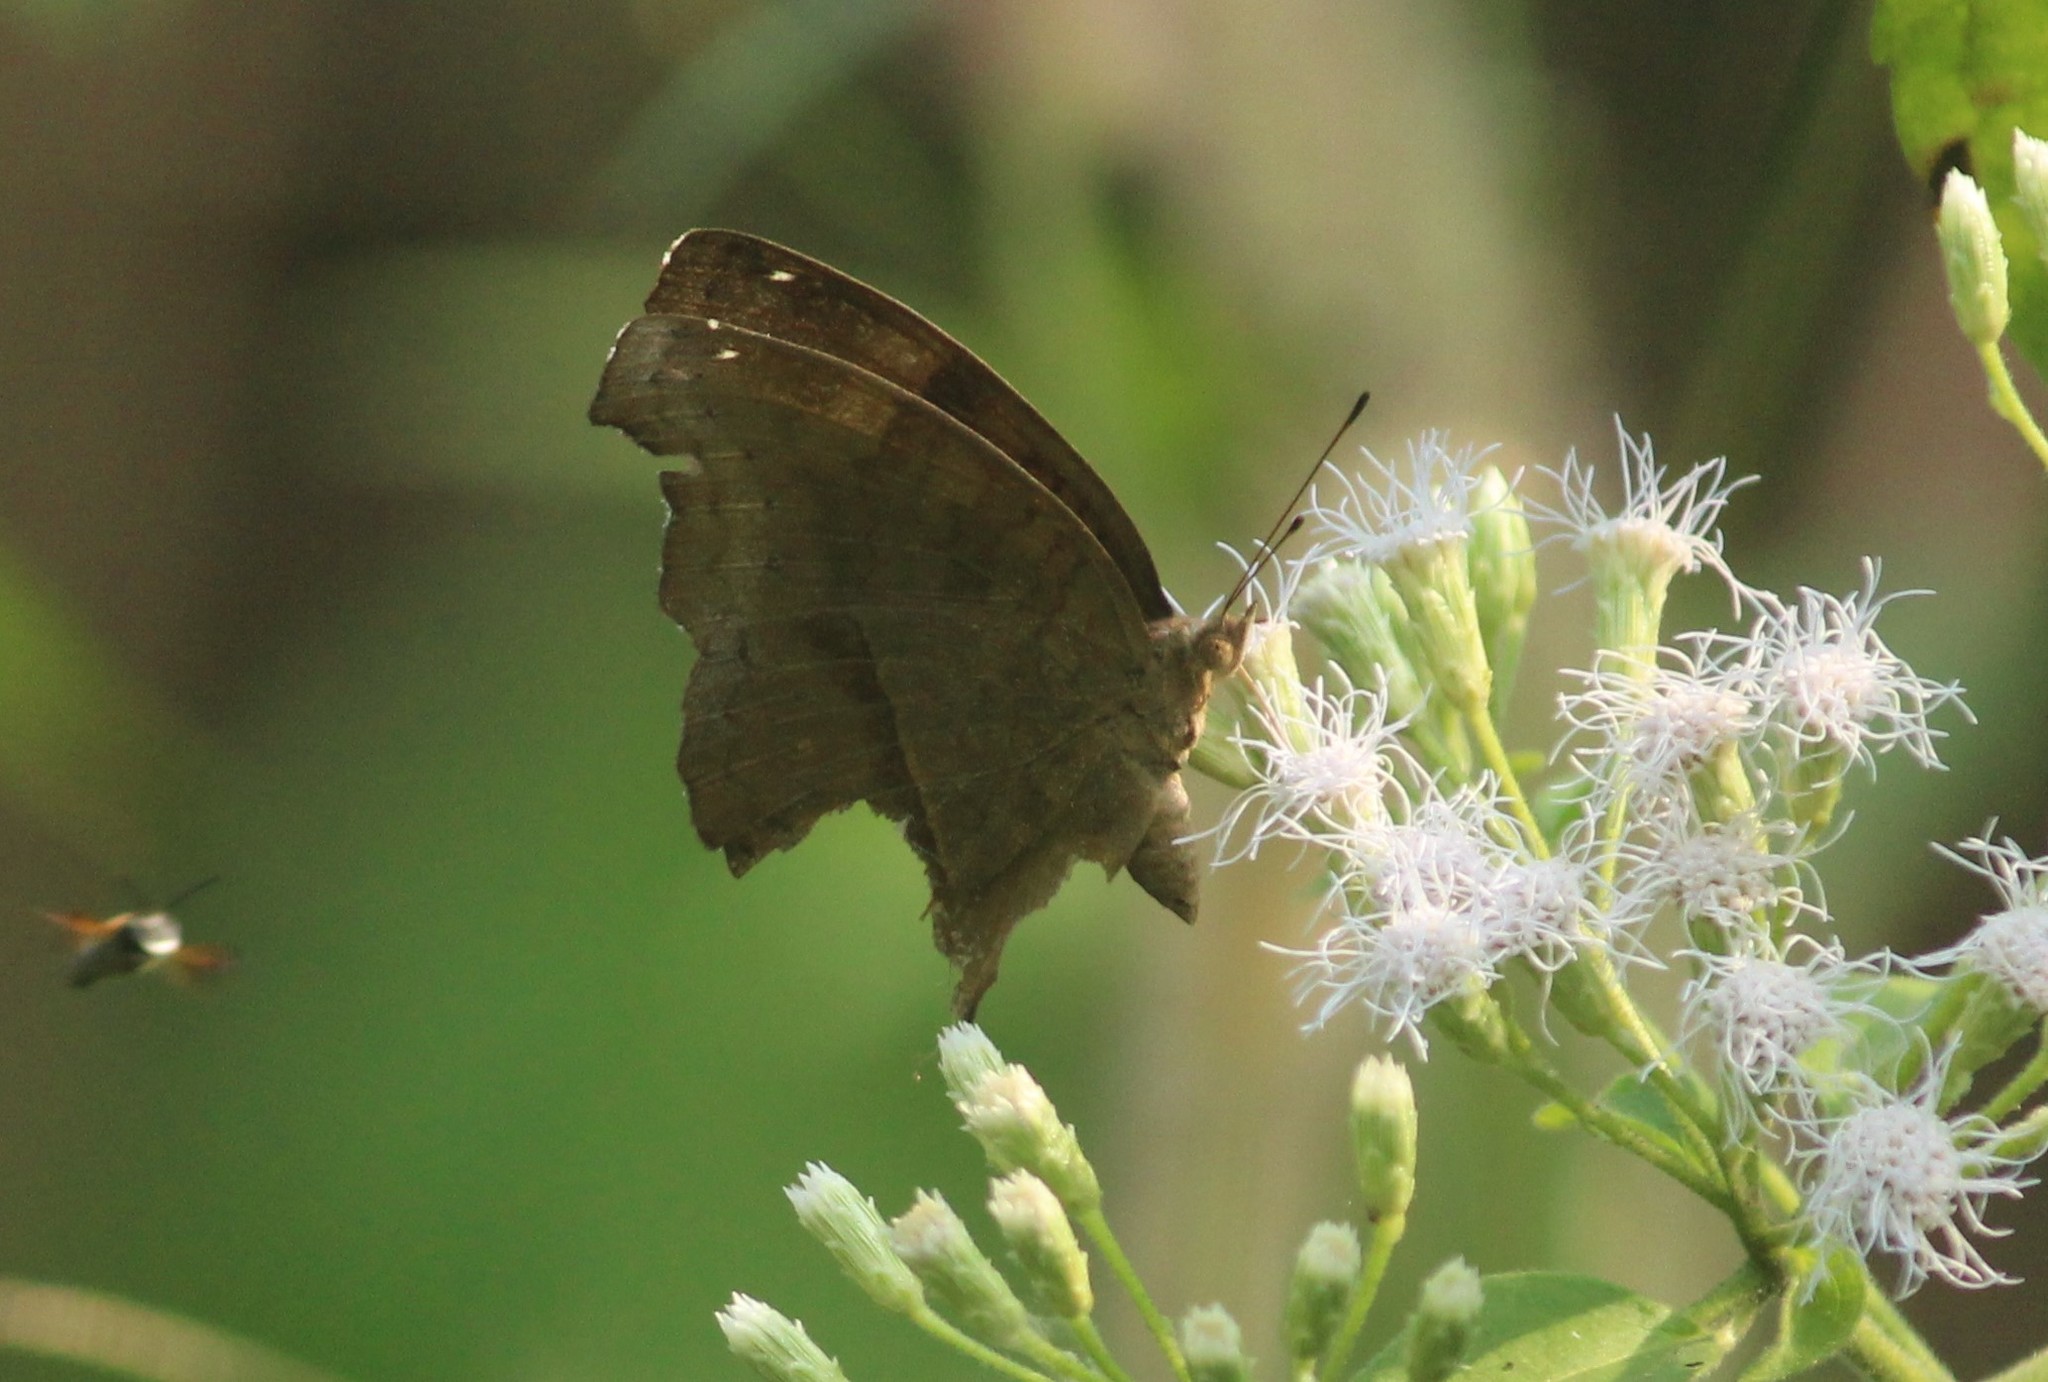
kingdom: Animalia
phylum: Arthropoda
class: Insecta
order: Lepidoptera
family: Nymphalidae
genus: Junonia
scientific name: Junonia iphita
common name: Chocolate pansy
